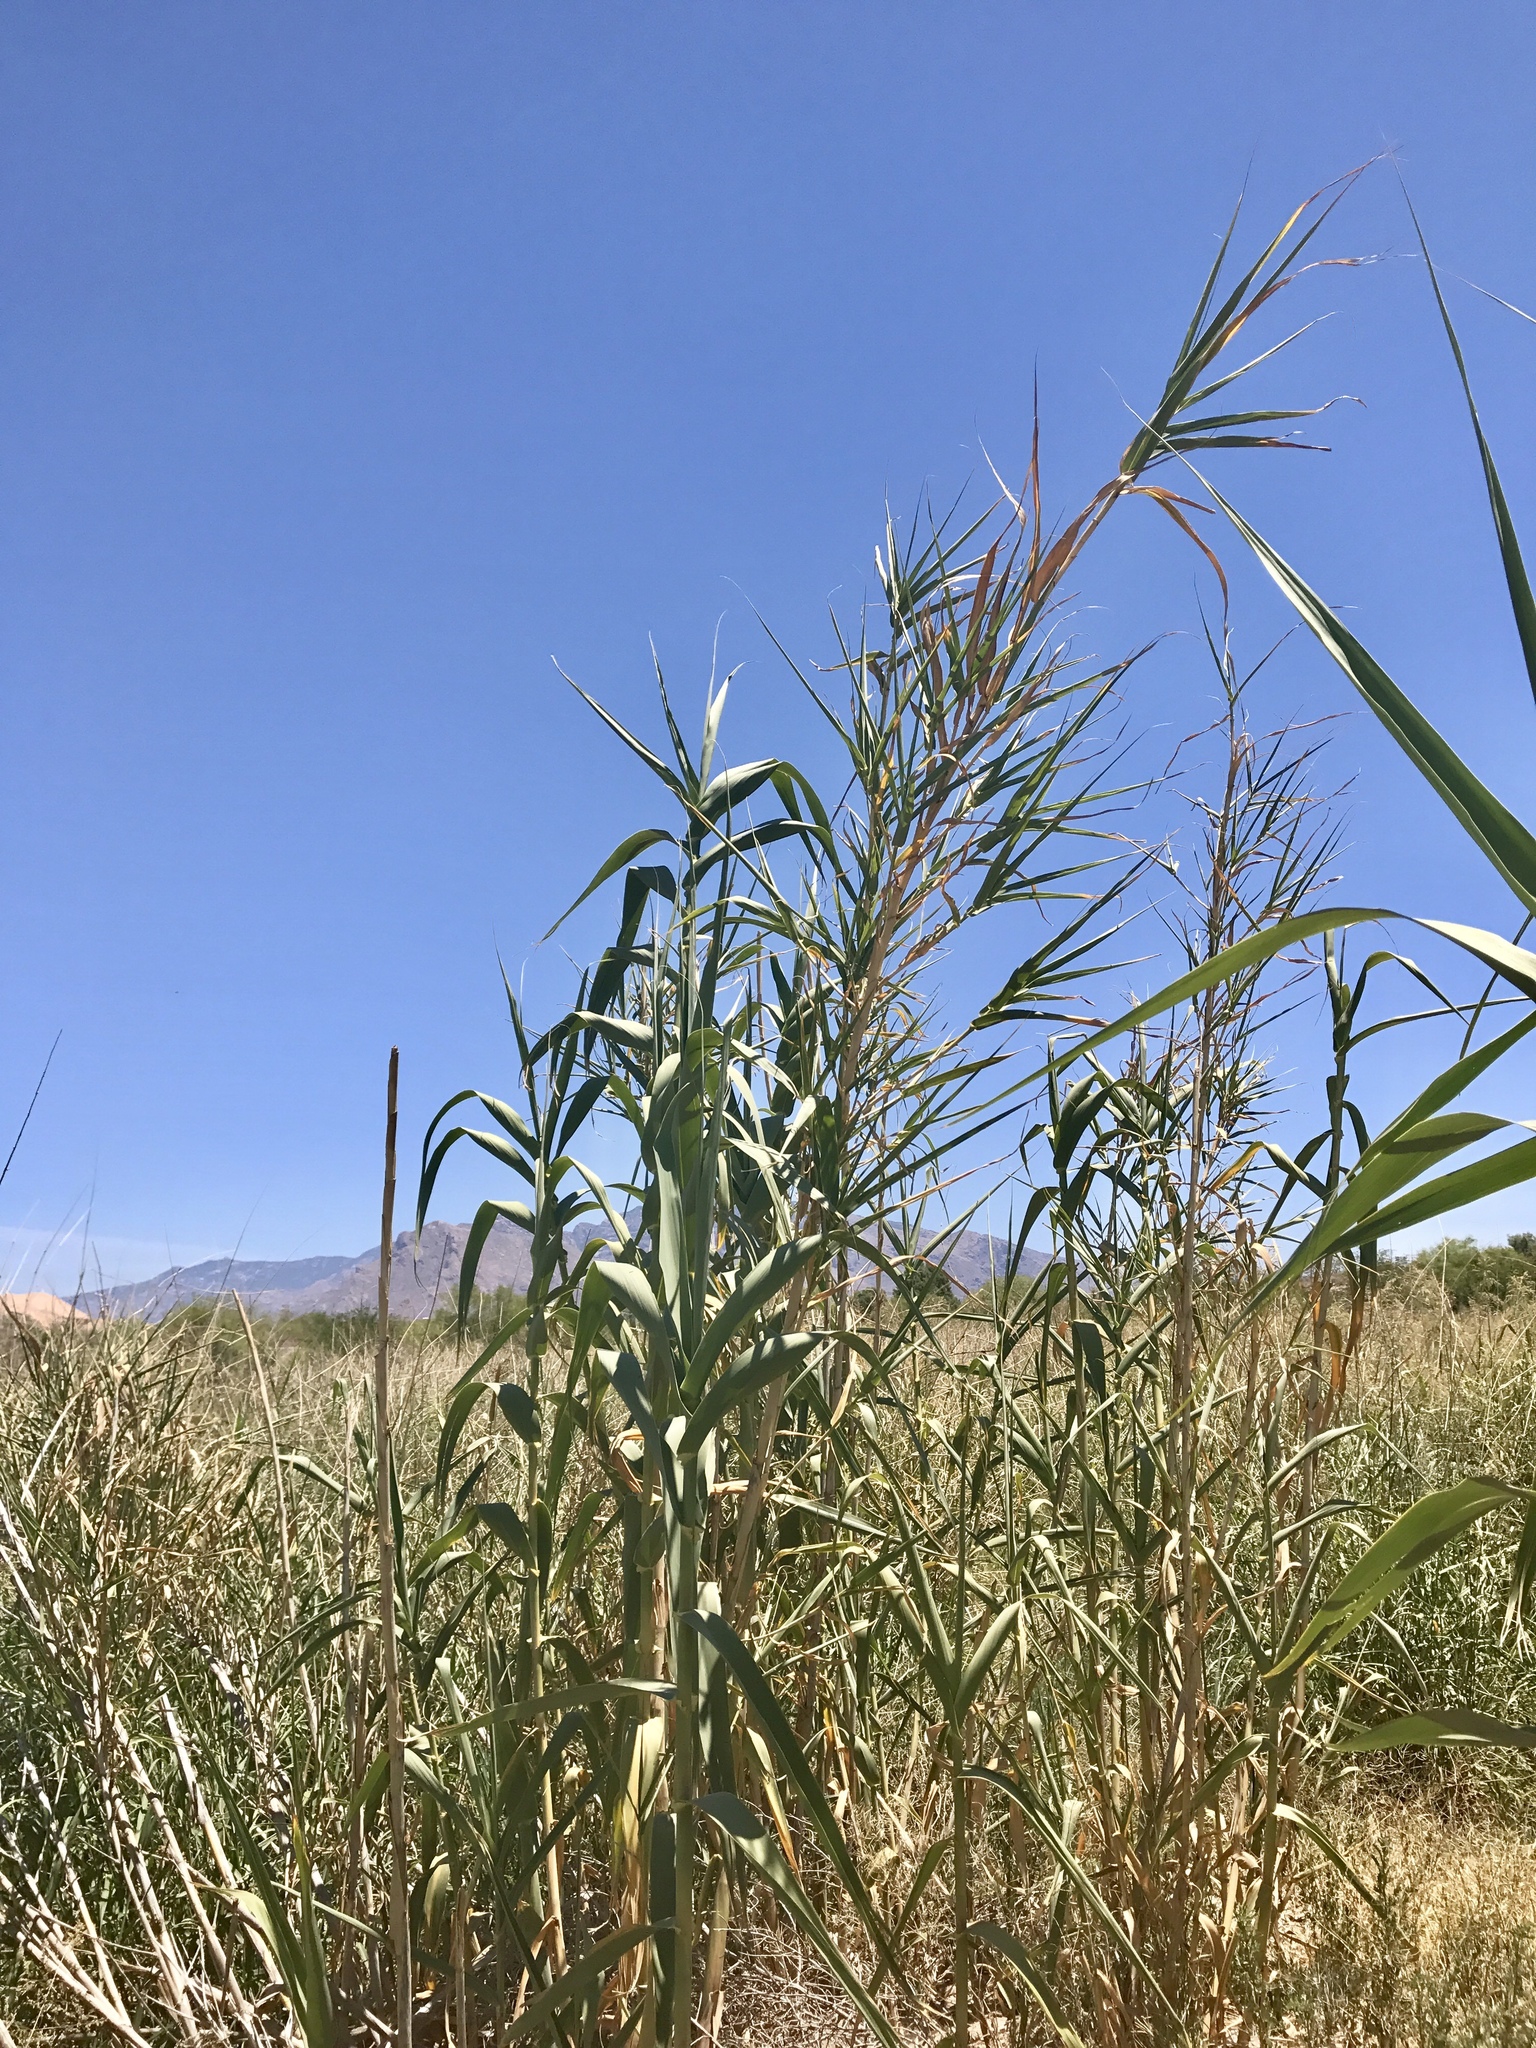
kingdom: Plantae
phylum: Tracheophyta
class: Liliopsida
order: Poales
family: Poaceae
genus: Arundo
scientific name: Arundo donax
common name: Giant reed
